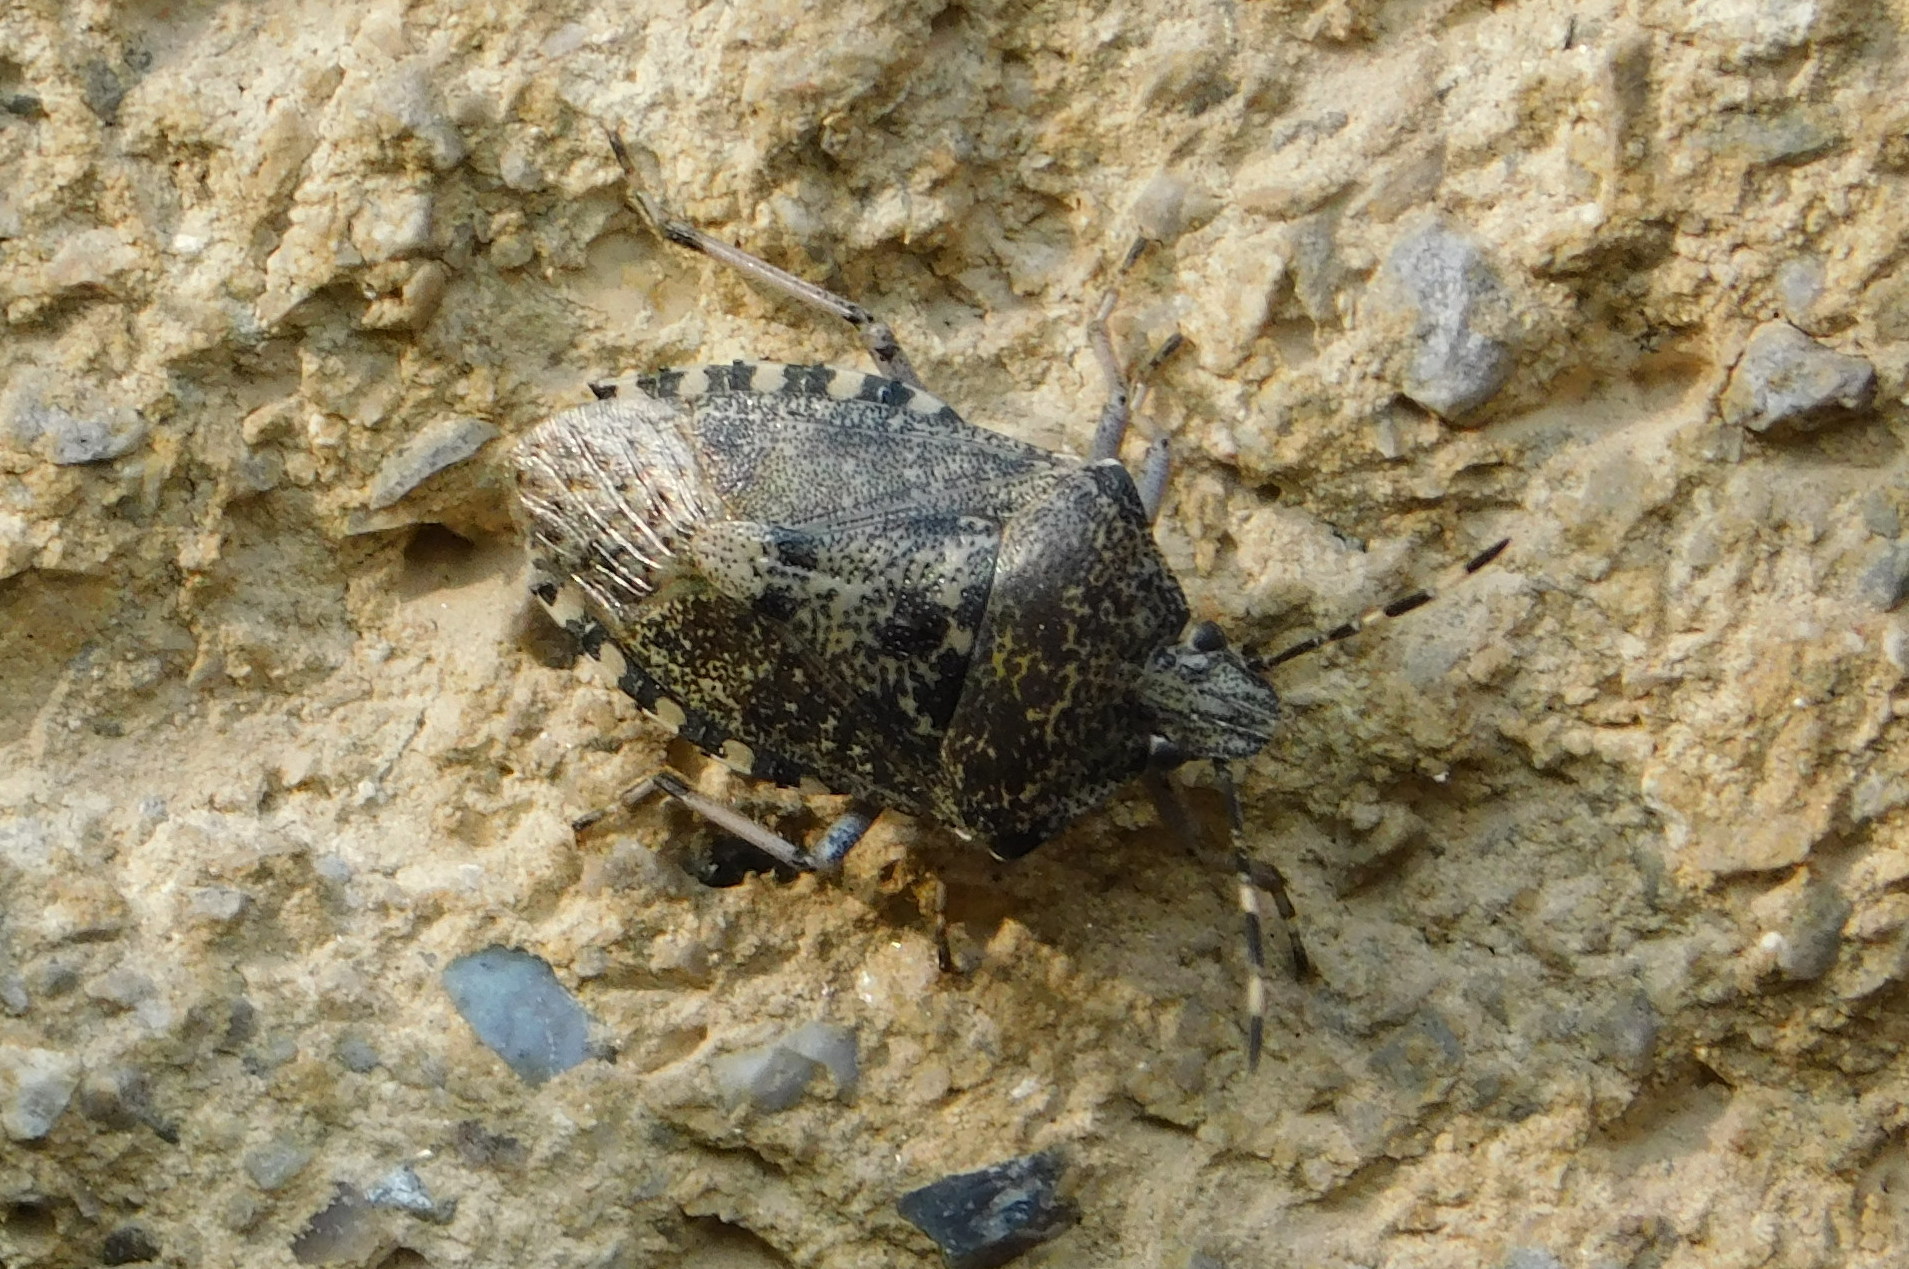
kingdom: Animalia
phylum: Arthropoda
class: Insecta
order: Hemiptera
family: Pentatomidae
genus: Rhaphigaster
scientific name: Rhaphigaster nebulosa
